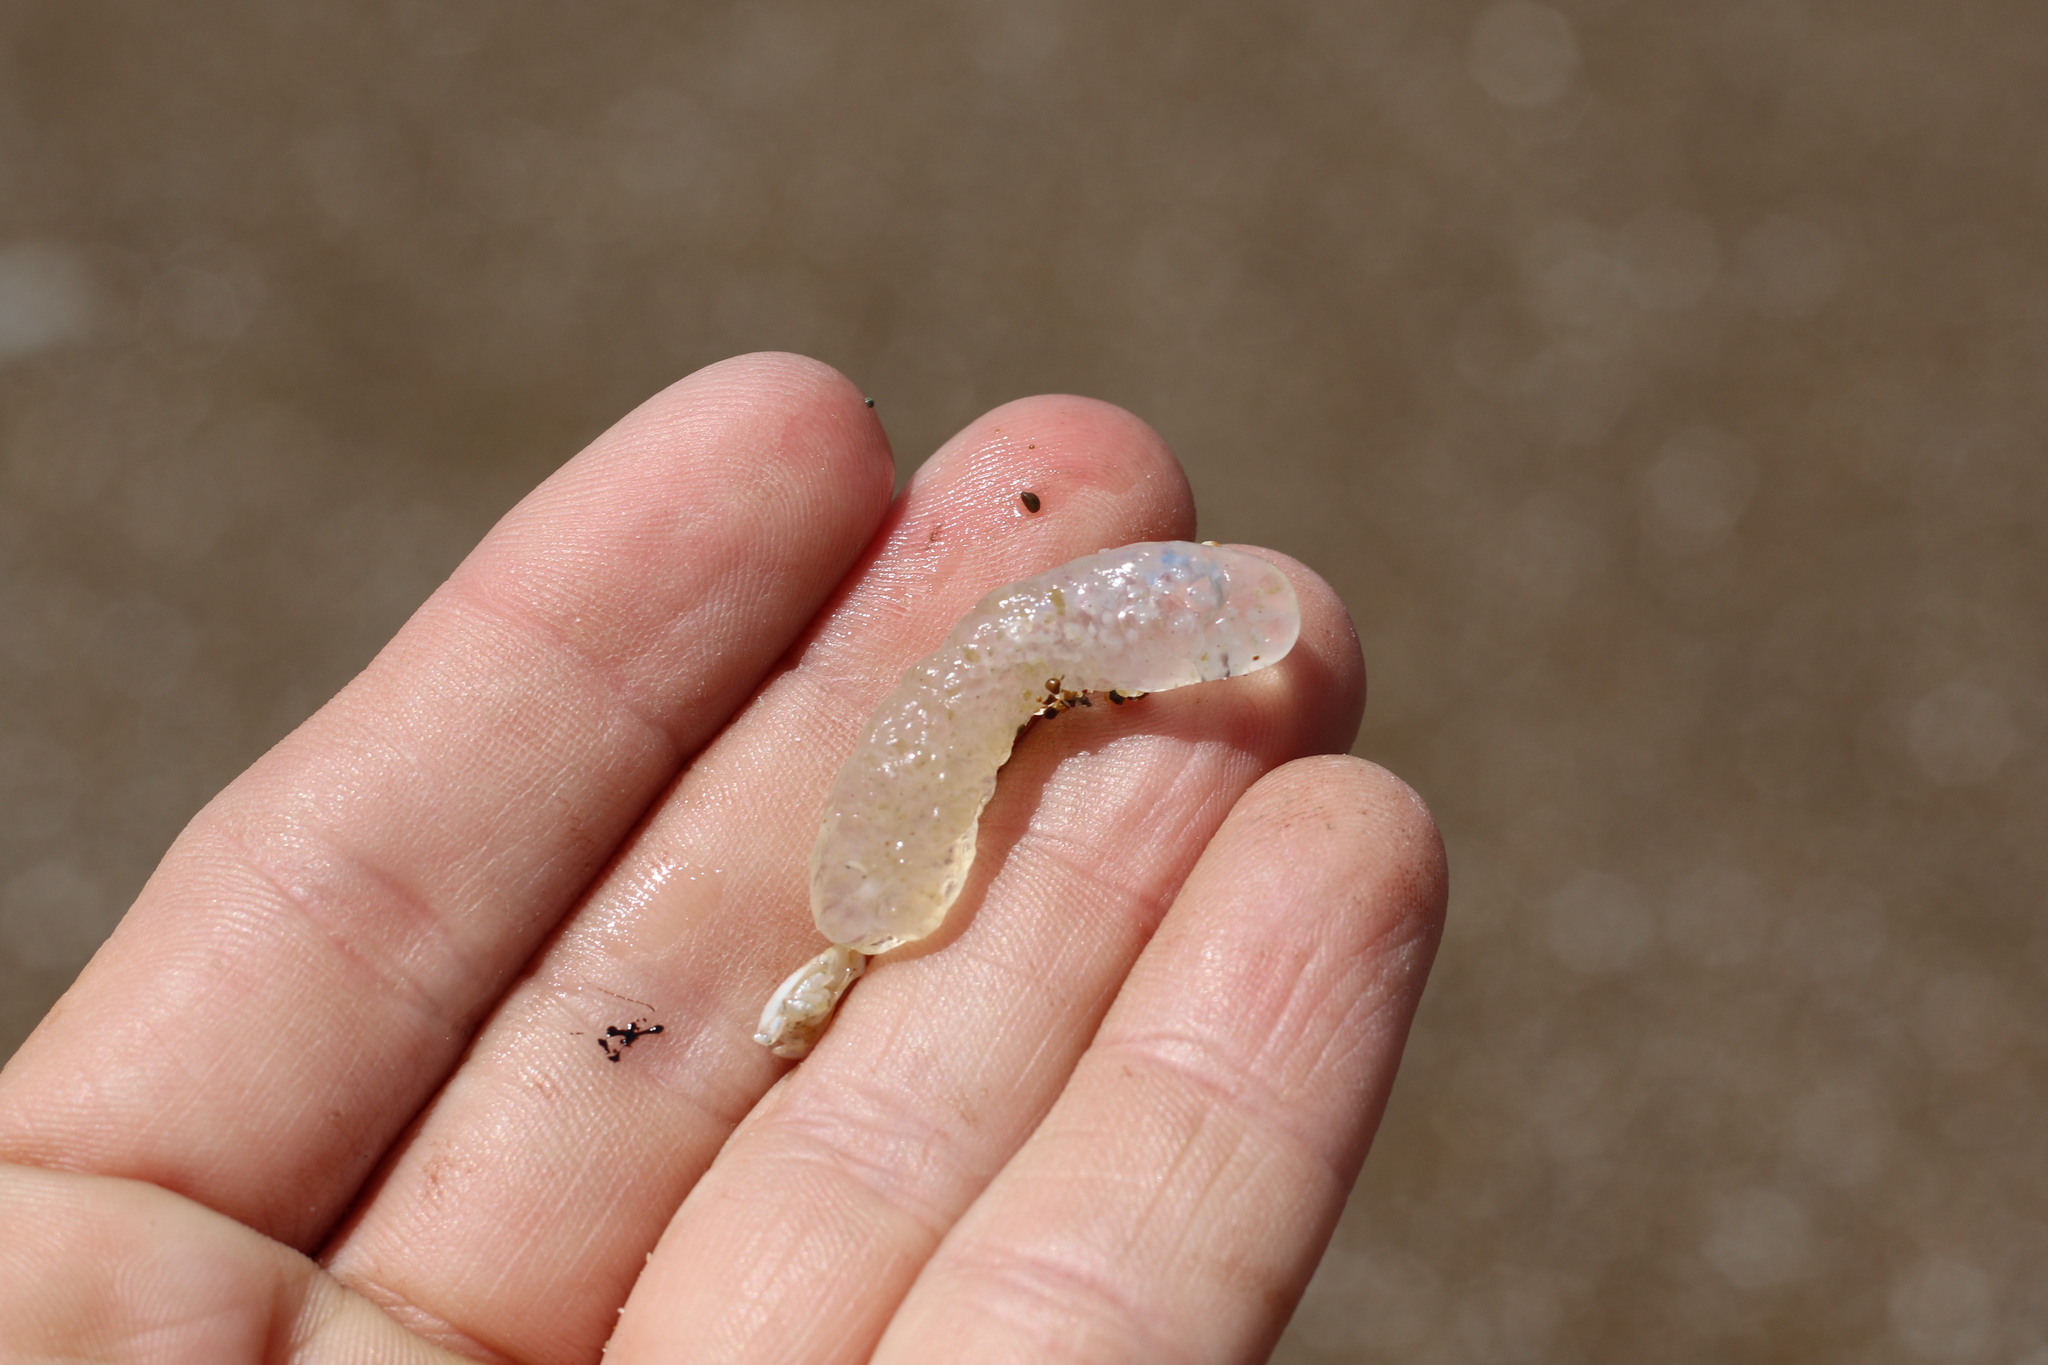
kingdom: Animalia
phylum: Chordata
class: Thaliacea
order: Pyrosomatida
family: Pyrosomatidae
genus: Pyrosoma
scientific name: Pyrosoma atlanticum
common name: Atlantic pyrosomes
